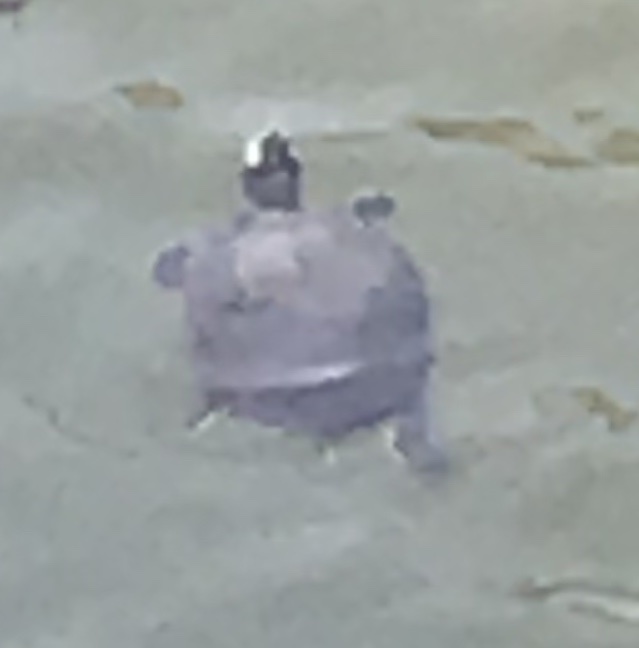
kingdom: Animalia
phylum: Chordata
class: Testudines
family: Emydidae
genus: Trachemys
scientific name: Trachemys scripta
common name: Slider
